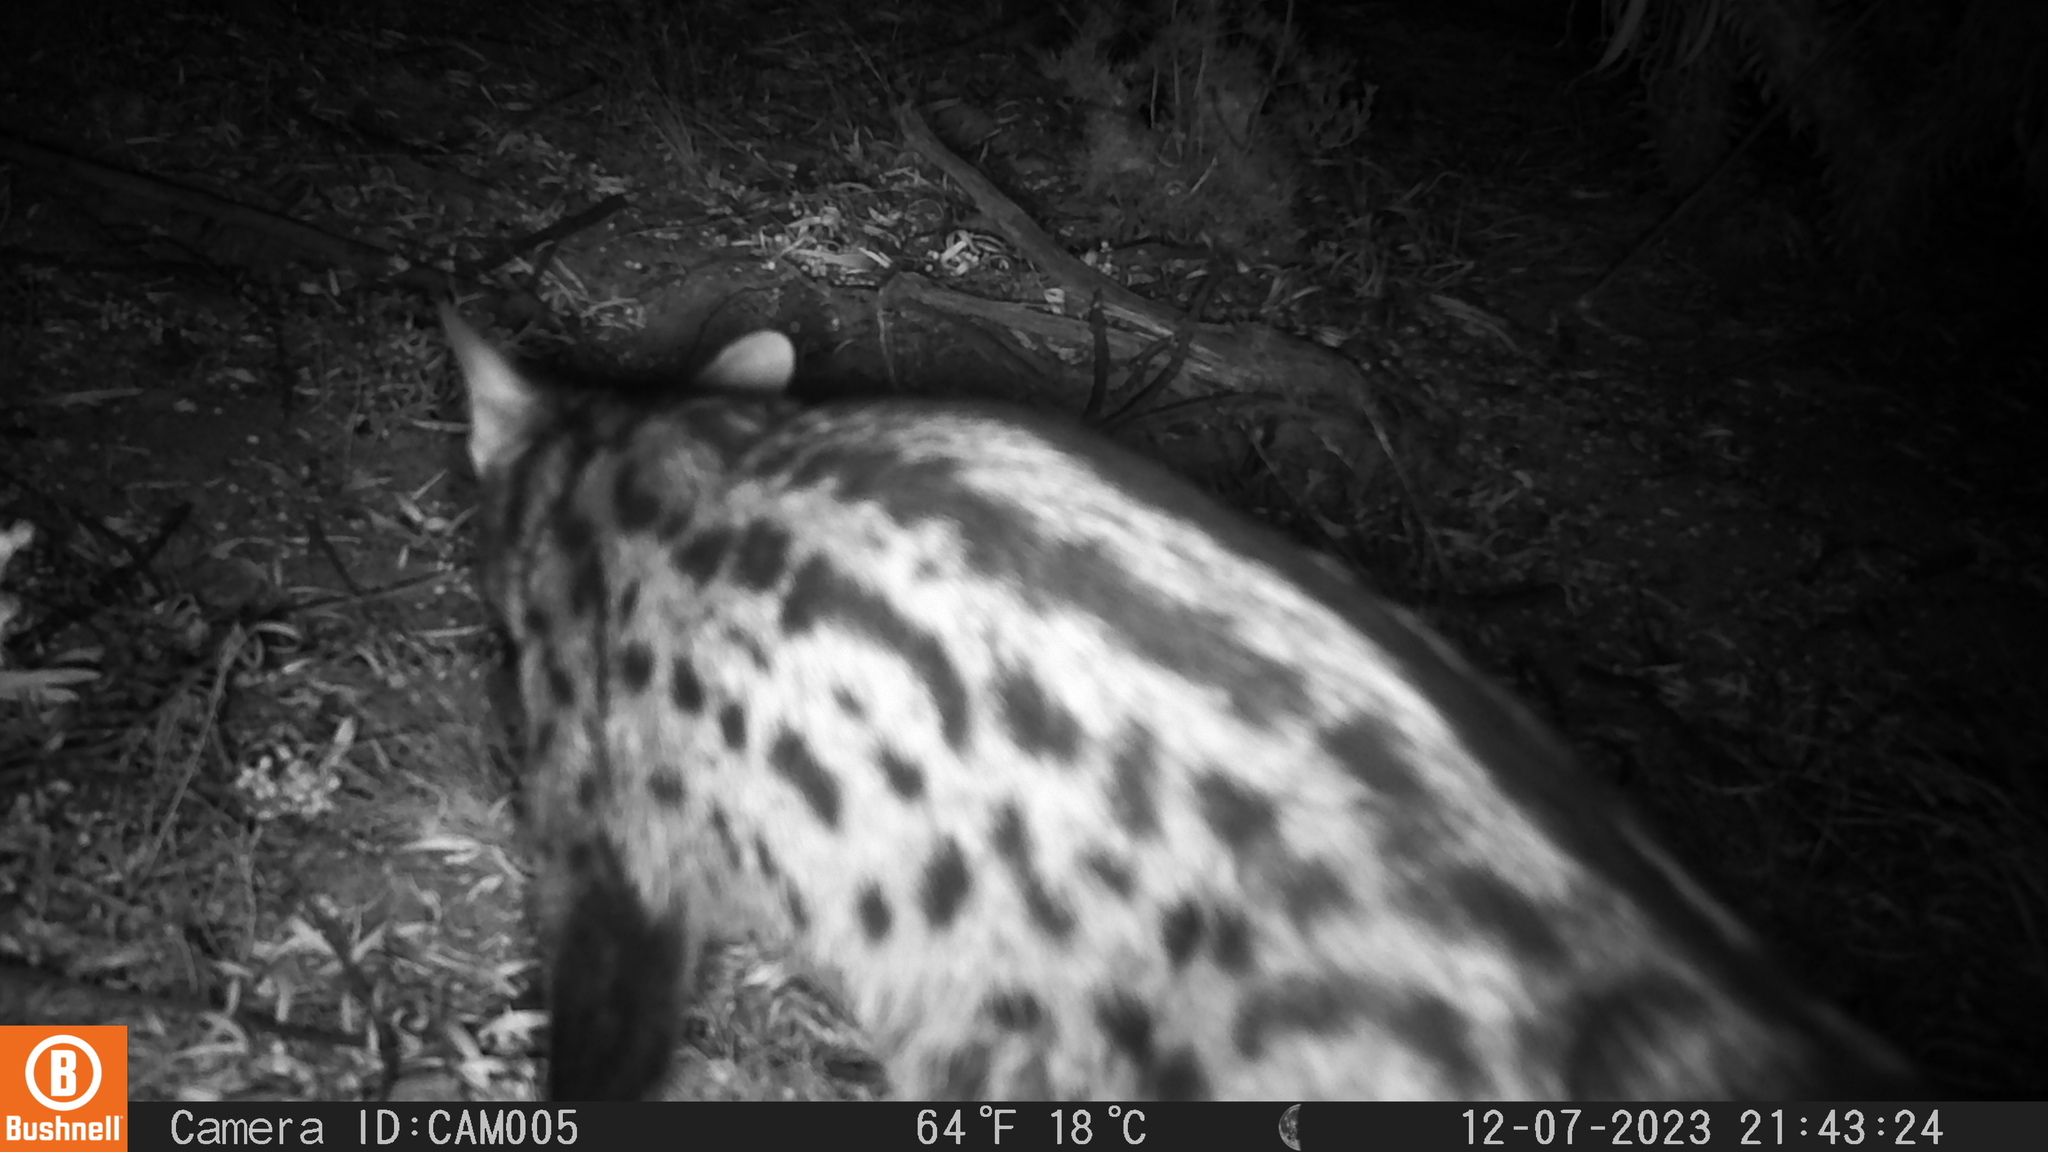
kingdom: Animalia
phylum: Chordata
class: Mammalia
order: Carnivora
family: Viverridae
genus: Genetta
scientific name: Genetta genetta
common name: Common genet
